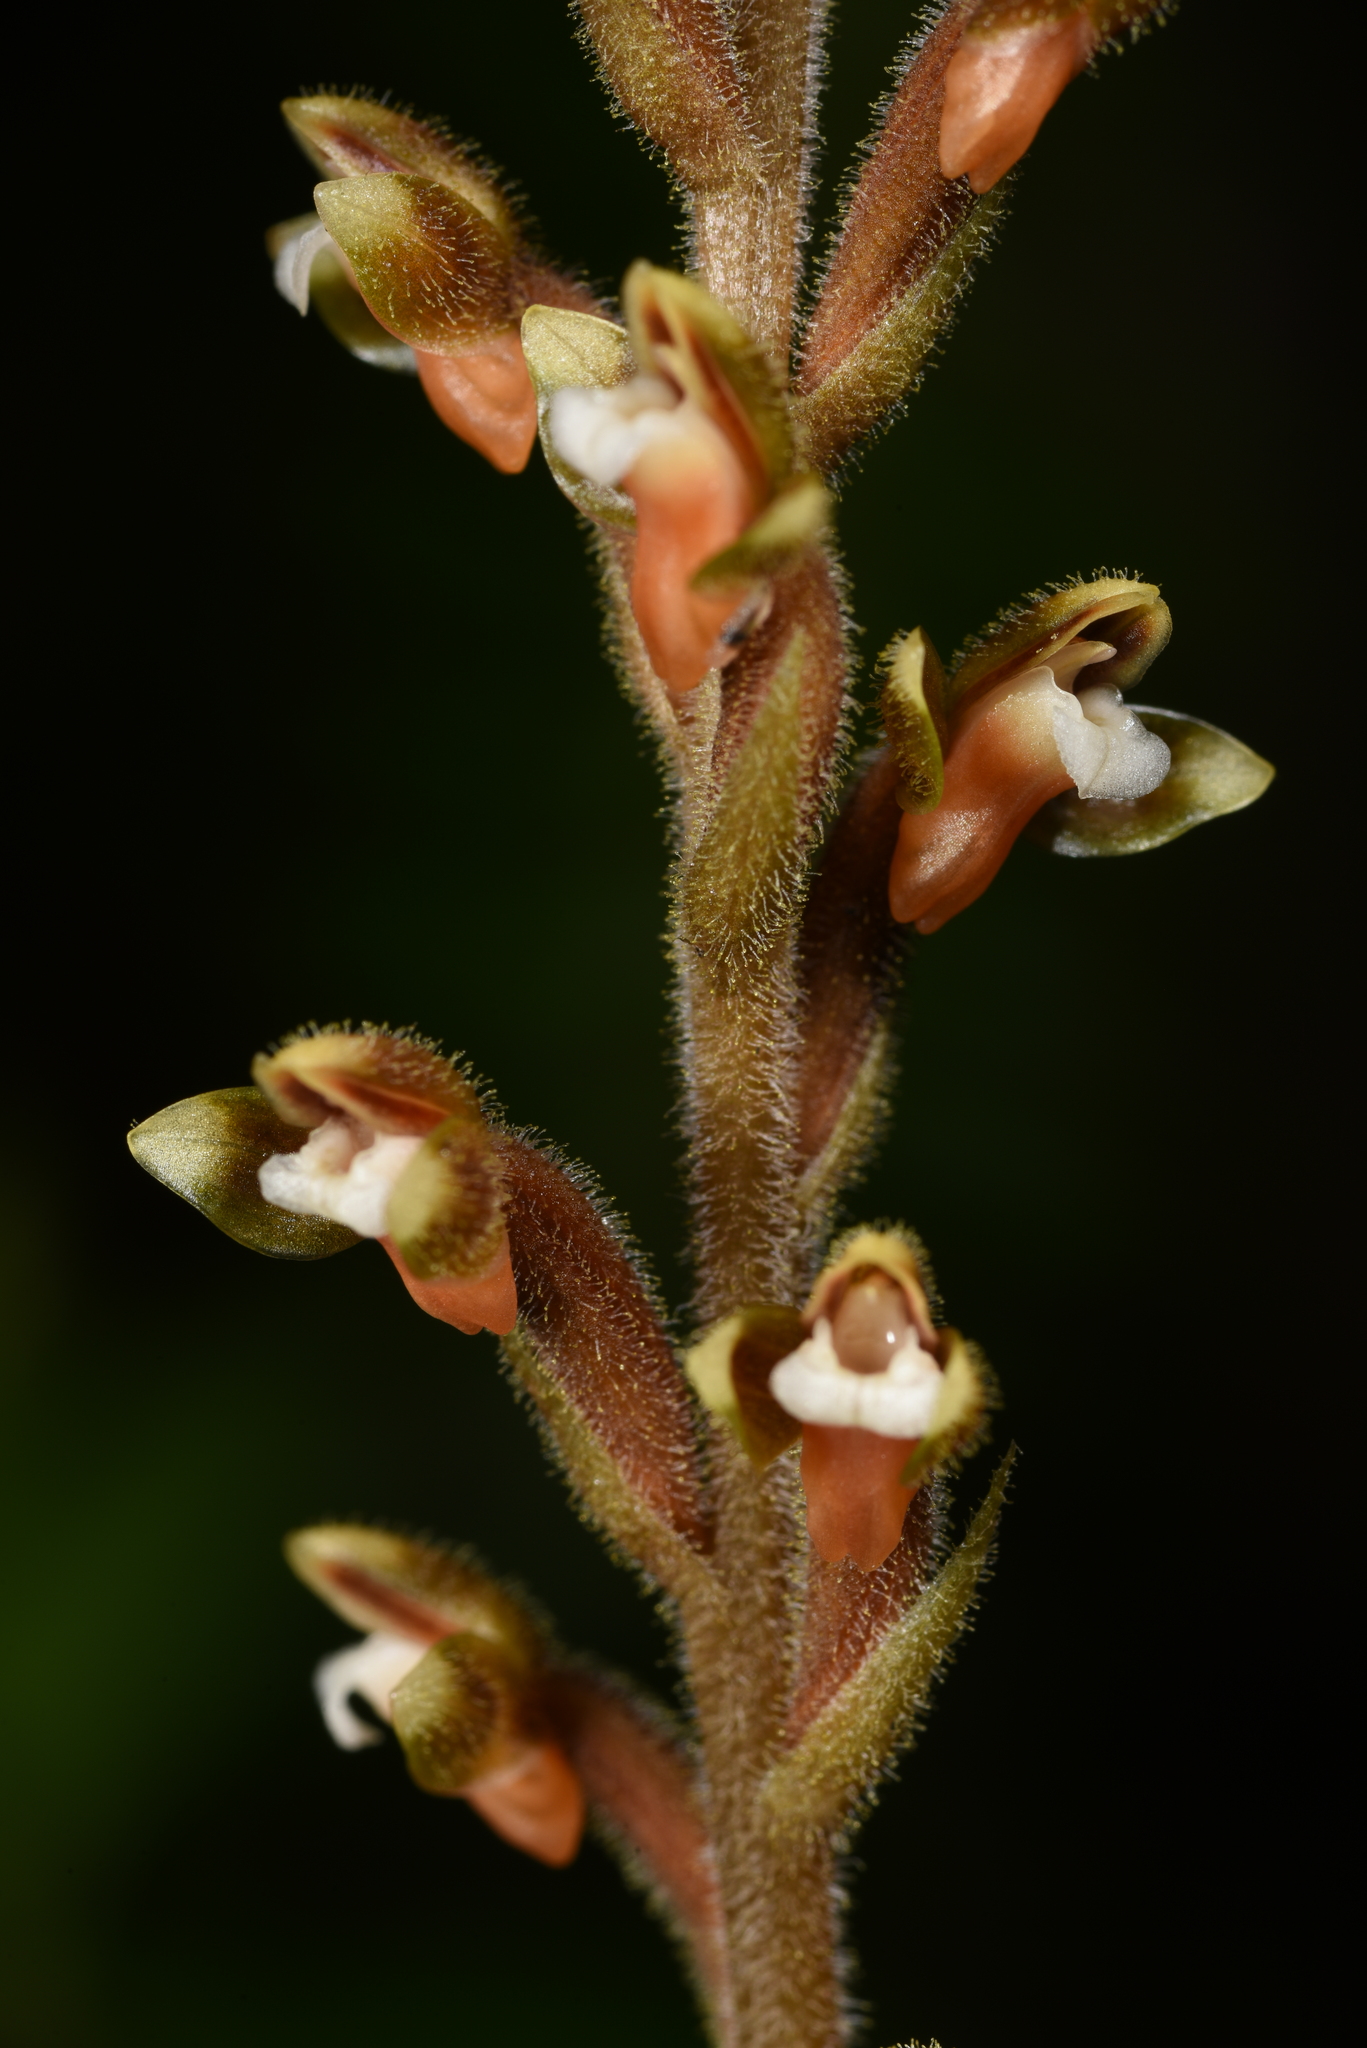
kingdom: Plantae
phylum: Tracheophyta
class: Liliopsida
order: Asparagales
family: Orchidaceae
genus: Erythrodes
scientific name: Erythrodes chinensis
